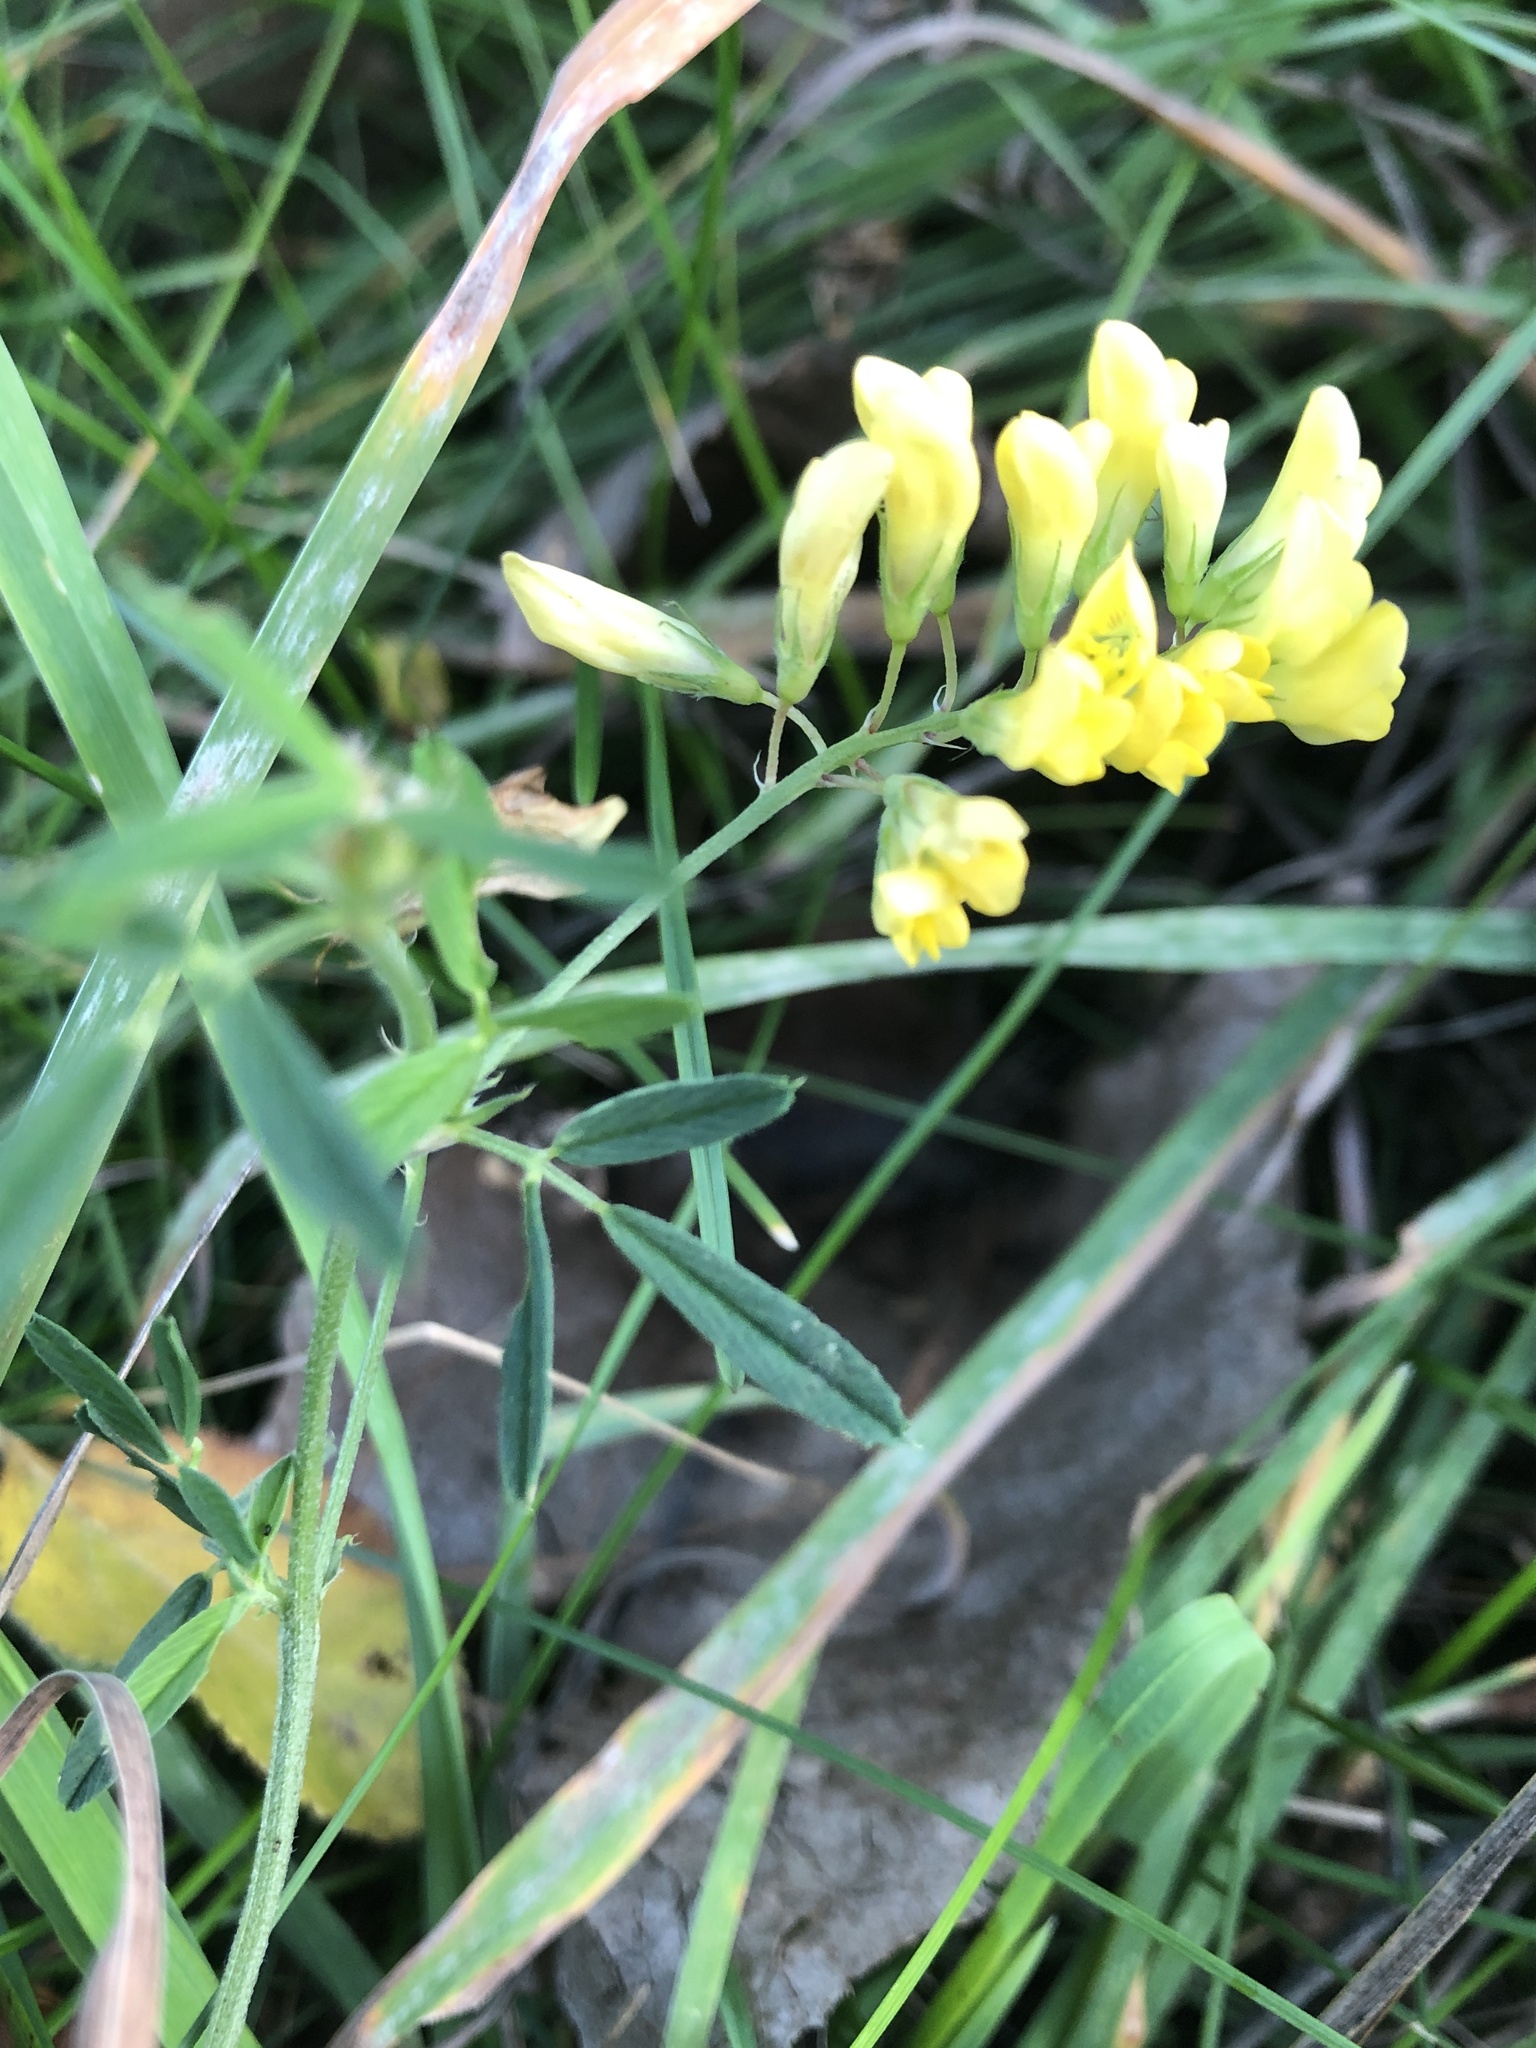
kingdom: Plantae
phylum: Tracheophyta
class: Magnoliopsida
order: Fabales
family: Fabaceae
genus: Medicago
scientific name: Medicago falcata
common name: Sickle medick
